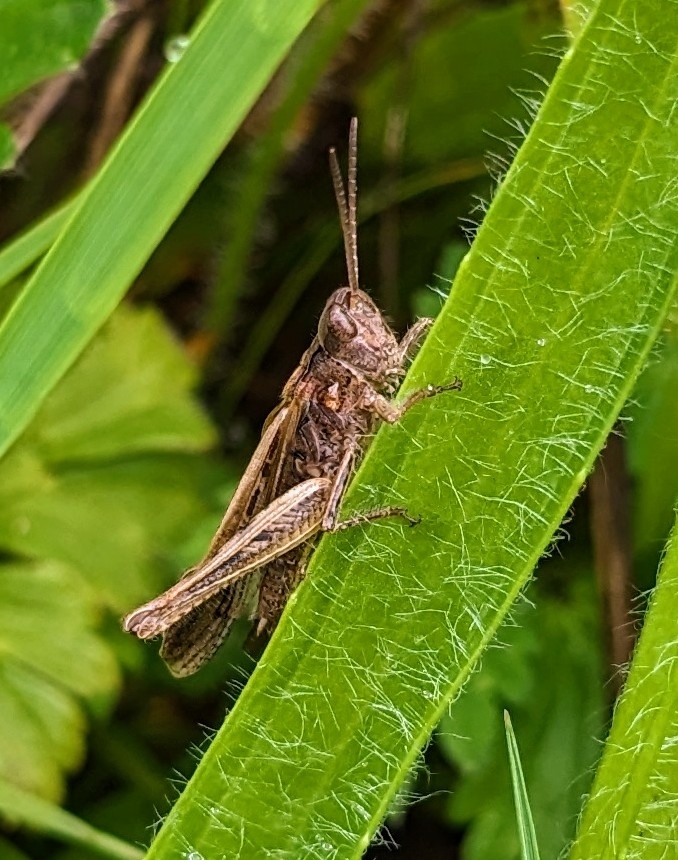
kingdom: Animalia
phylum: Arthropoda
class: Insecta
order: Orthoptera
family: Acrididae
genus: Chorthippus
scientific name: Chorthippus brunneus
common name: Field grasshopper
